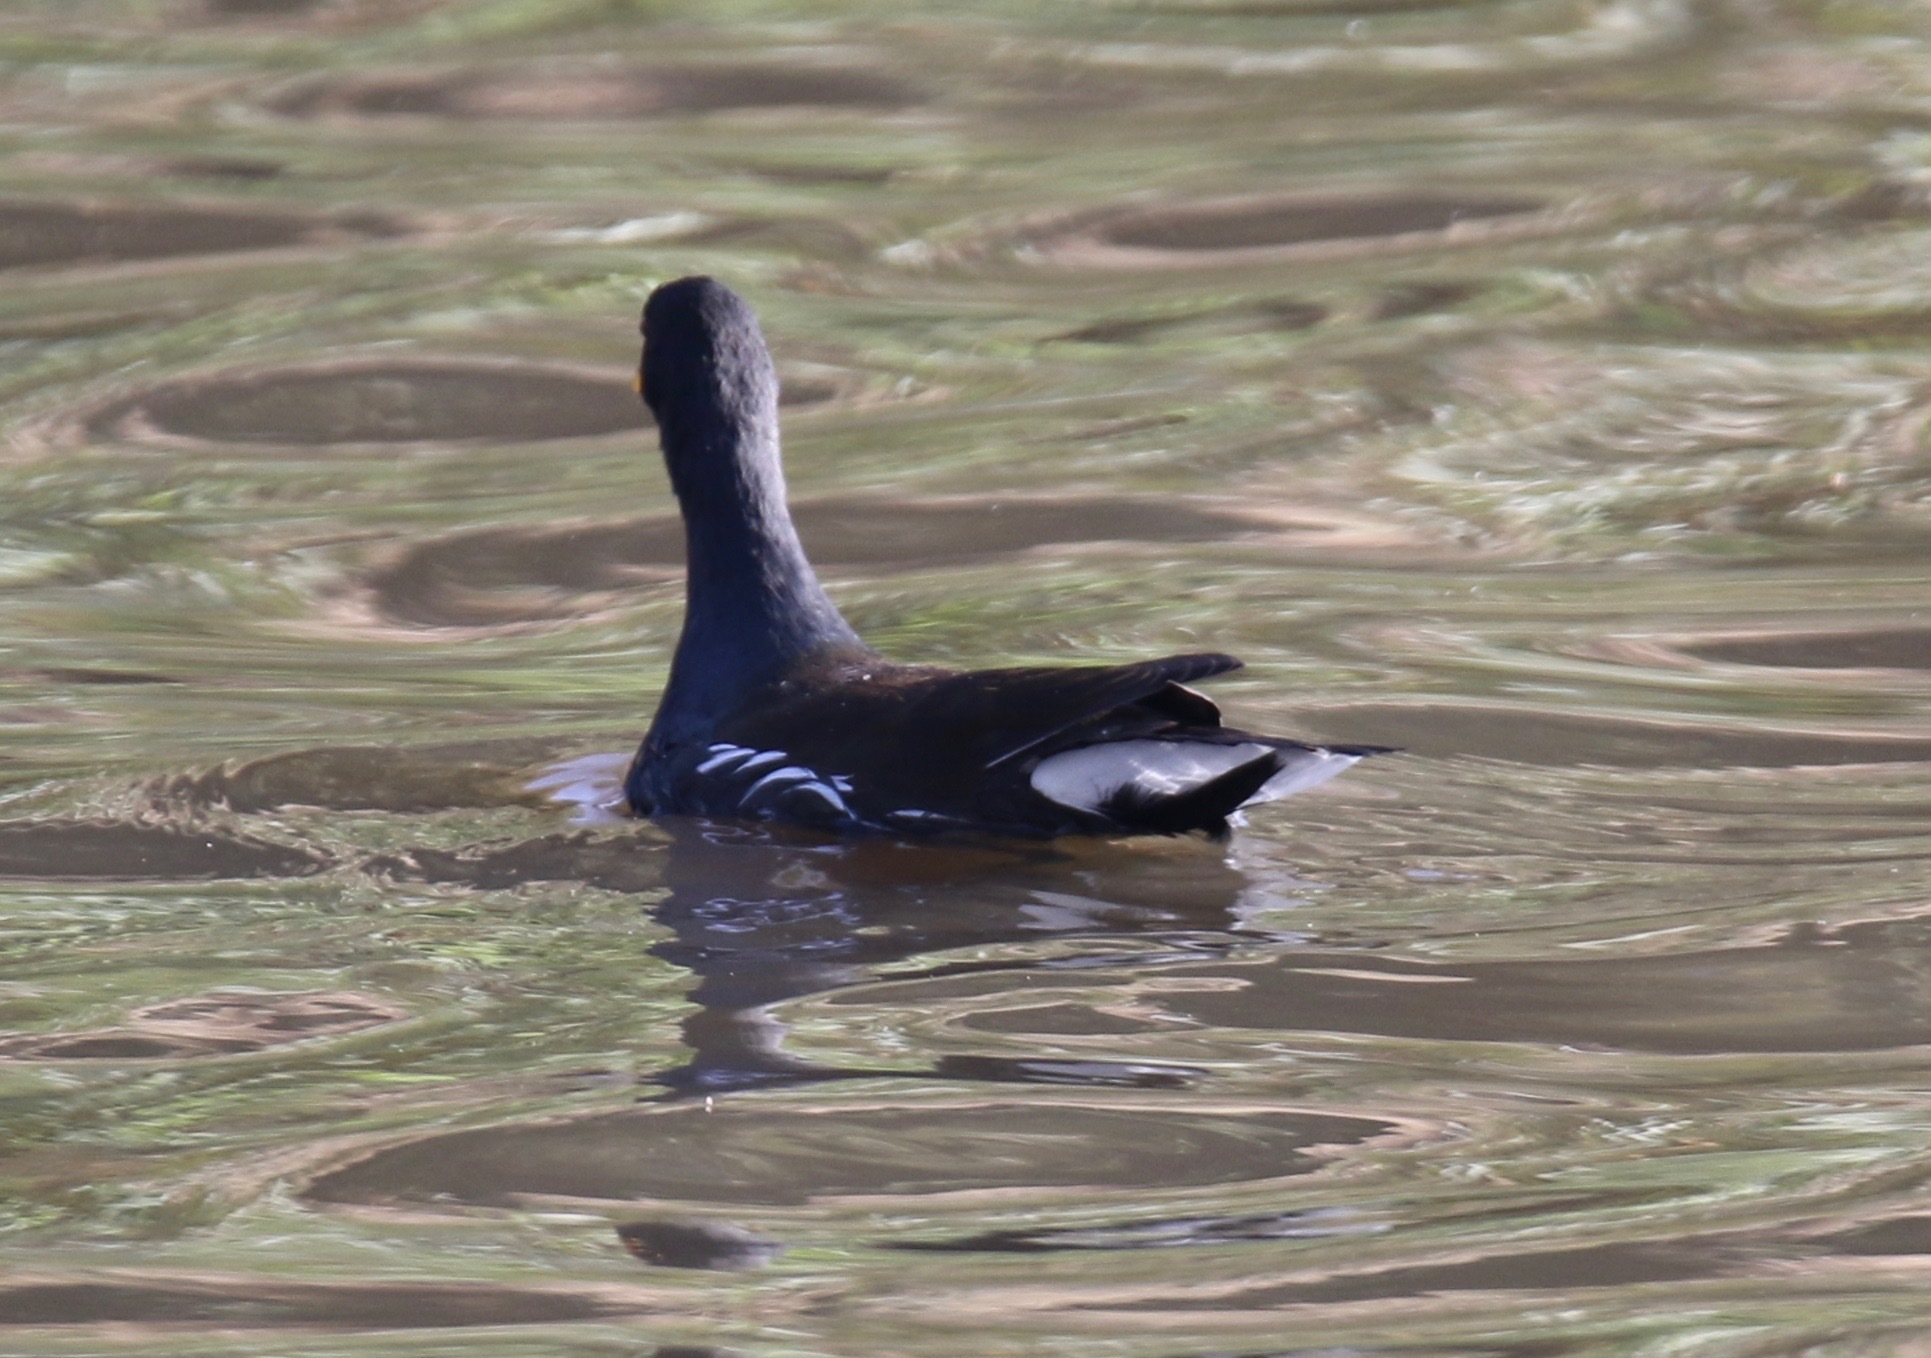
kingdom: Animalia
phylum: Chordata
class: Aves
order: Gruiformes
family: Rallidae
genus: Gallinula
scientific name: Gallinula chloropus
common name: Common moorhen
